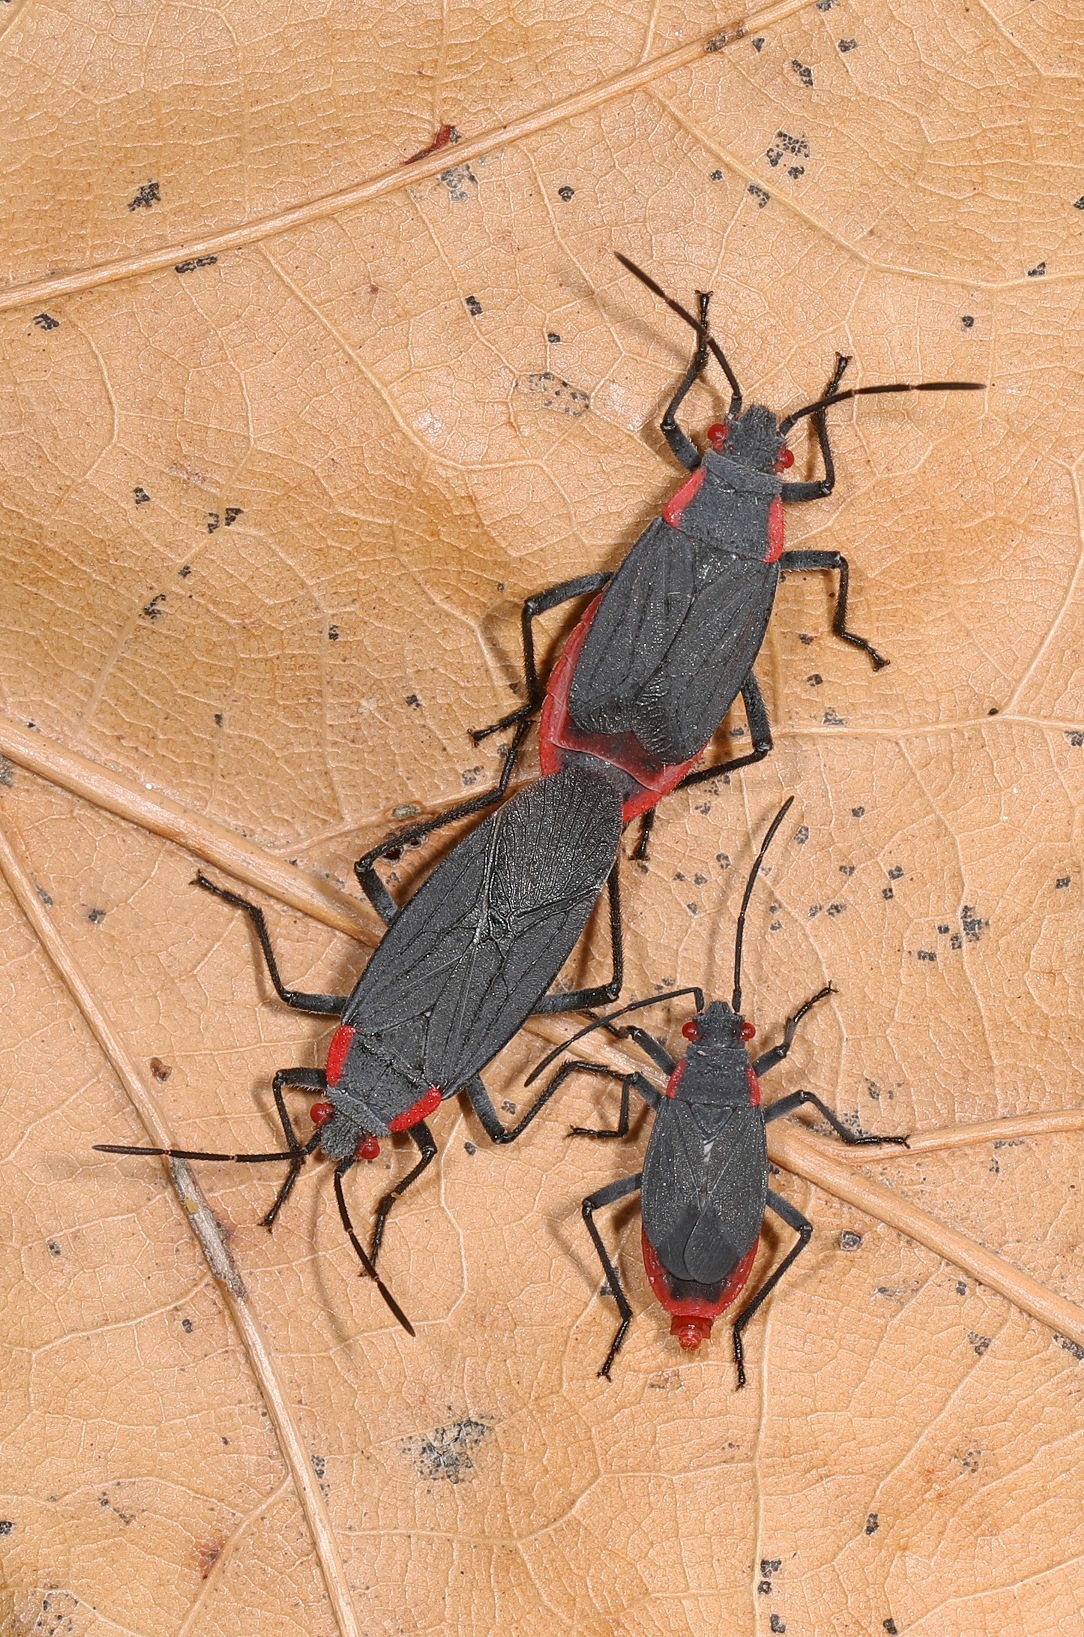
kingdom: Animalia
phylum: Arthropoda
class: Insecta
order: Hemiptera
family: Rhopalidae
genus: Jadera
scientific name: Jadera haematoloma
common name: Red-shouldered bug
